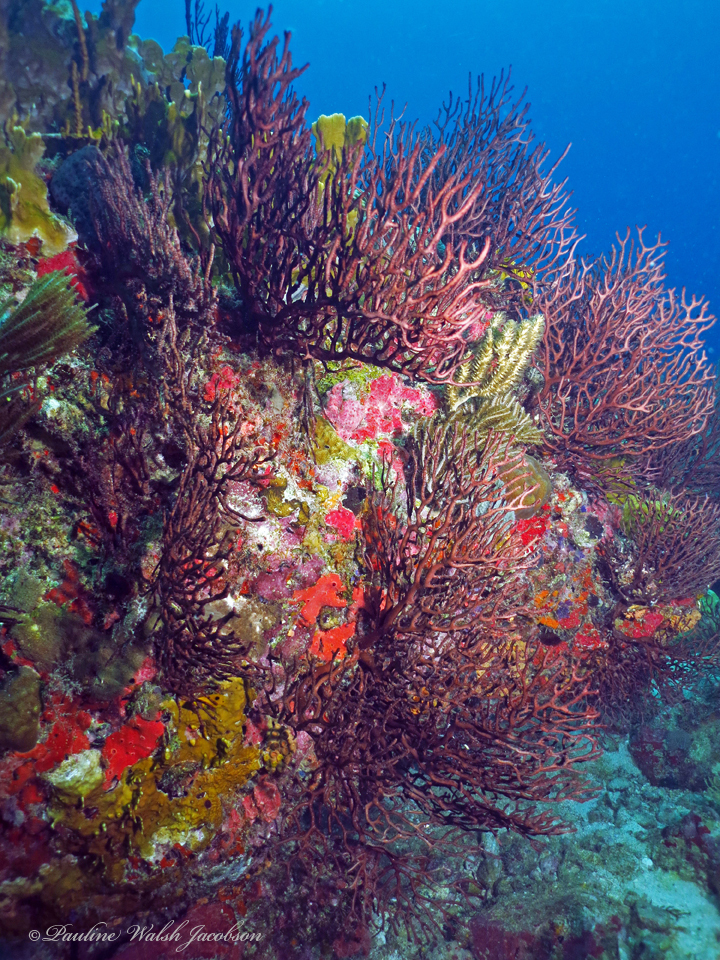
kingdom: Animalia
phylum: Cnidaria
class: Anthozoa
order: Malacalcyonacea
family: Melithaeidae
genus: Iciligorgia
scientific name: Iciligorgia schrammi
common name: Black sea fan
